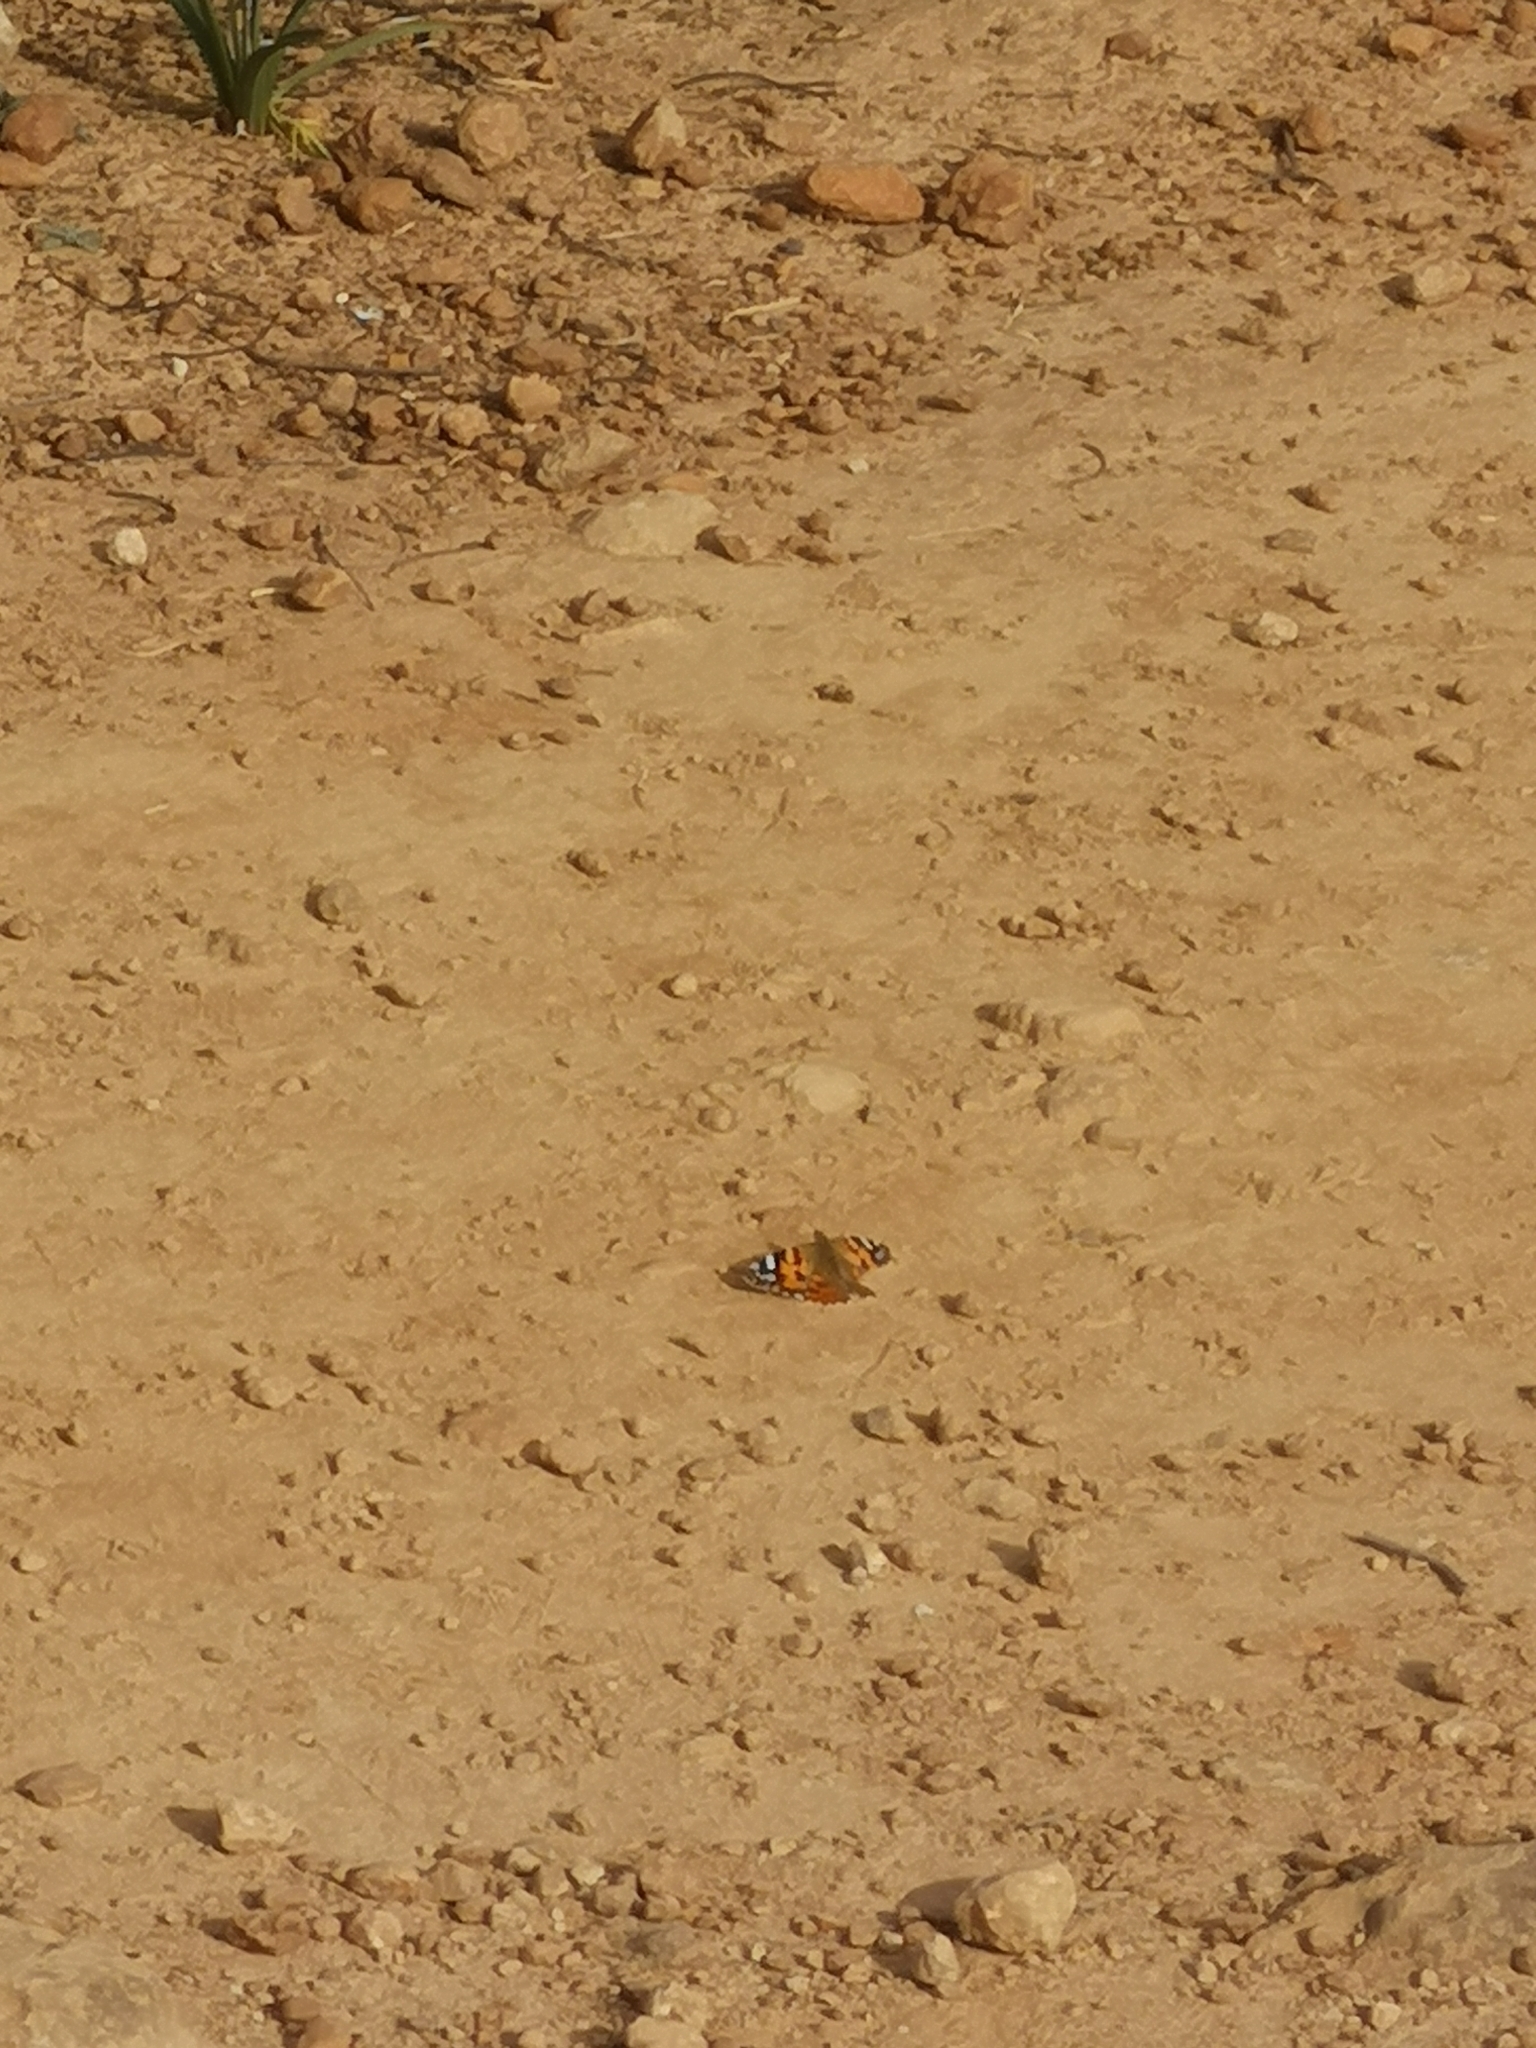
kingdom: Animalia
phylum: Arthropoda
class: Insecta
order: Lepidoptera
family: Nymphalidae
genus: Vanessa
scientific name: Vanessa cardui
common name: Painted lady
